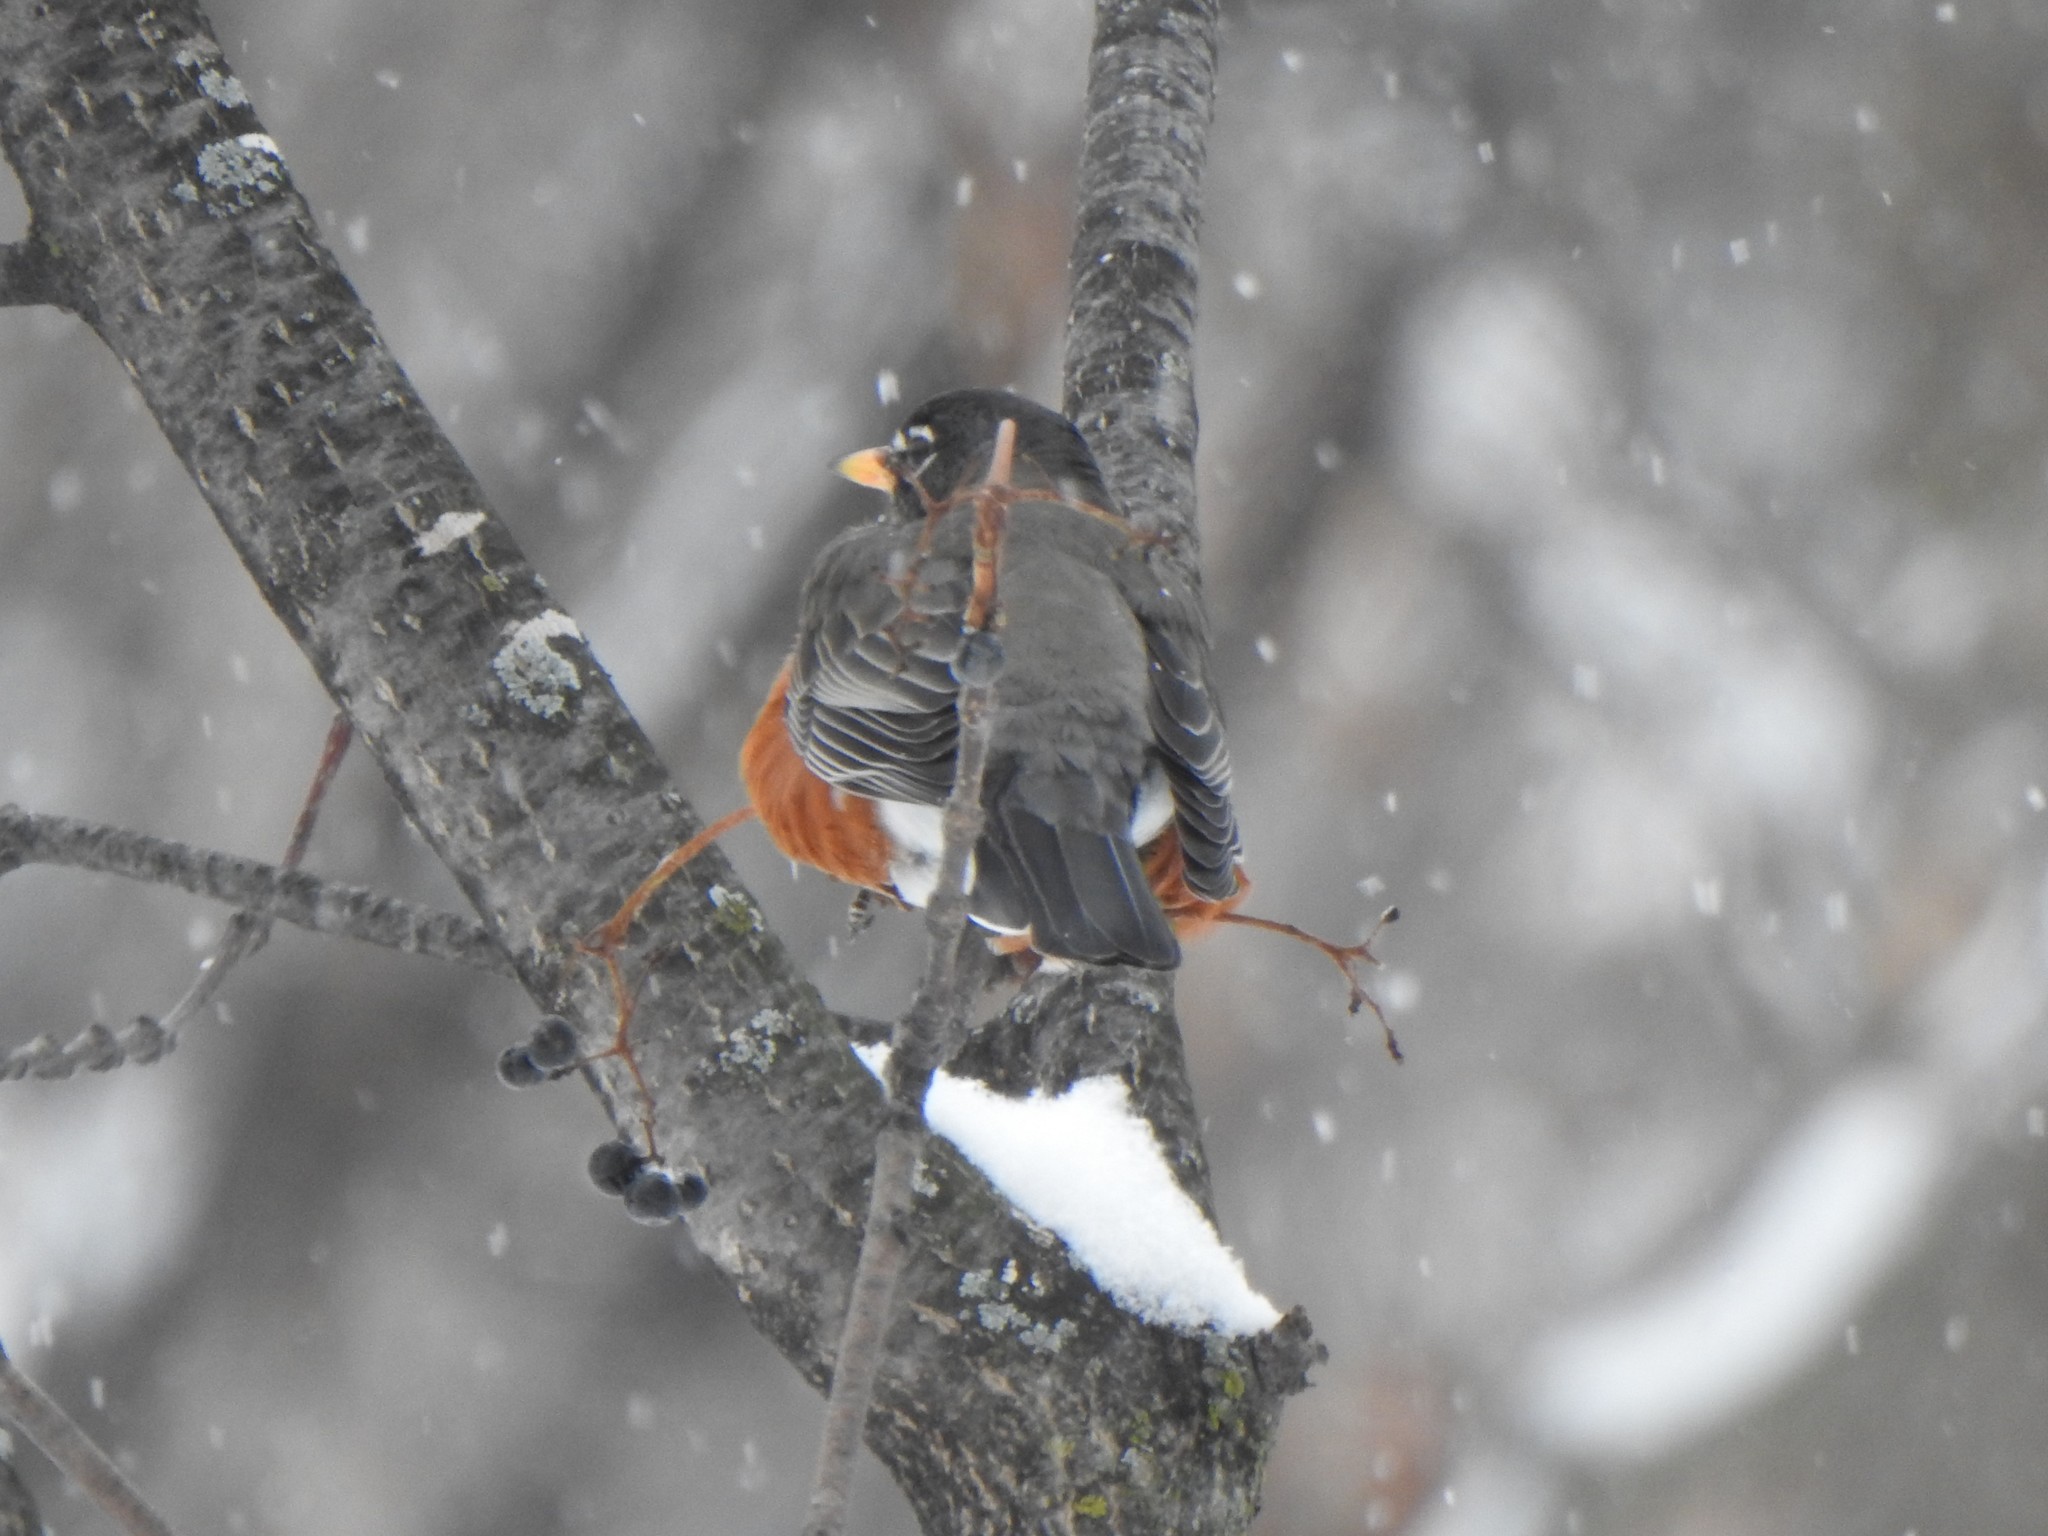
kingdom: Animalia
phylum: Chordata
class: Aves
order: Passeriformes
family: Turdidae
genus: Turdus
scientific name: Turdus migratorius
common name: American robin
